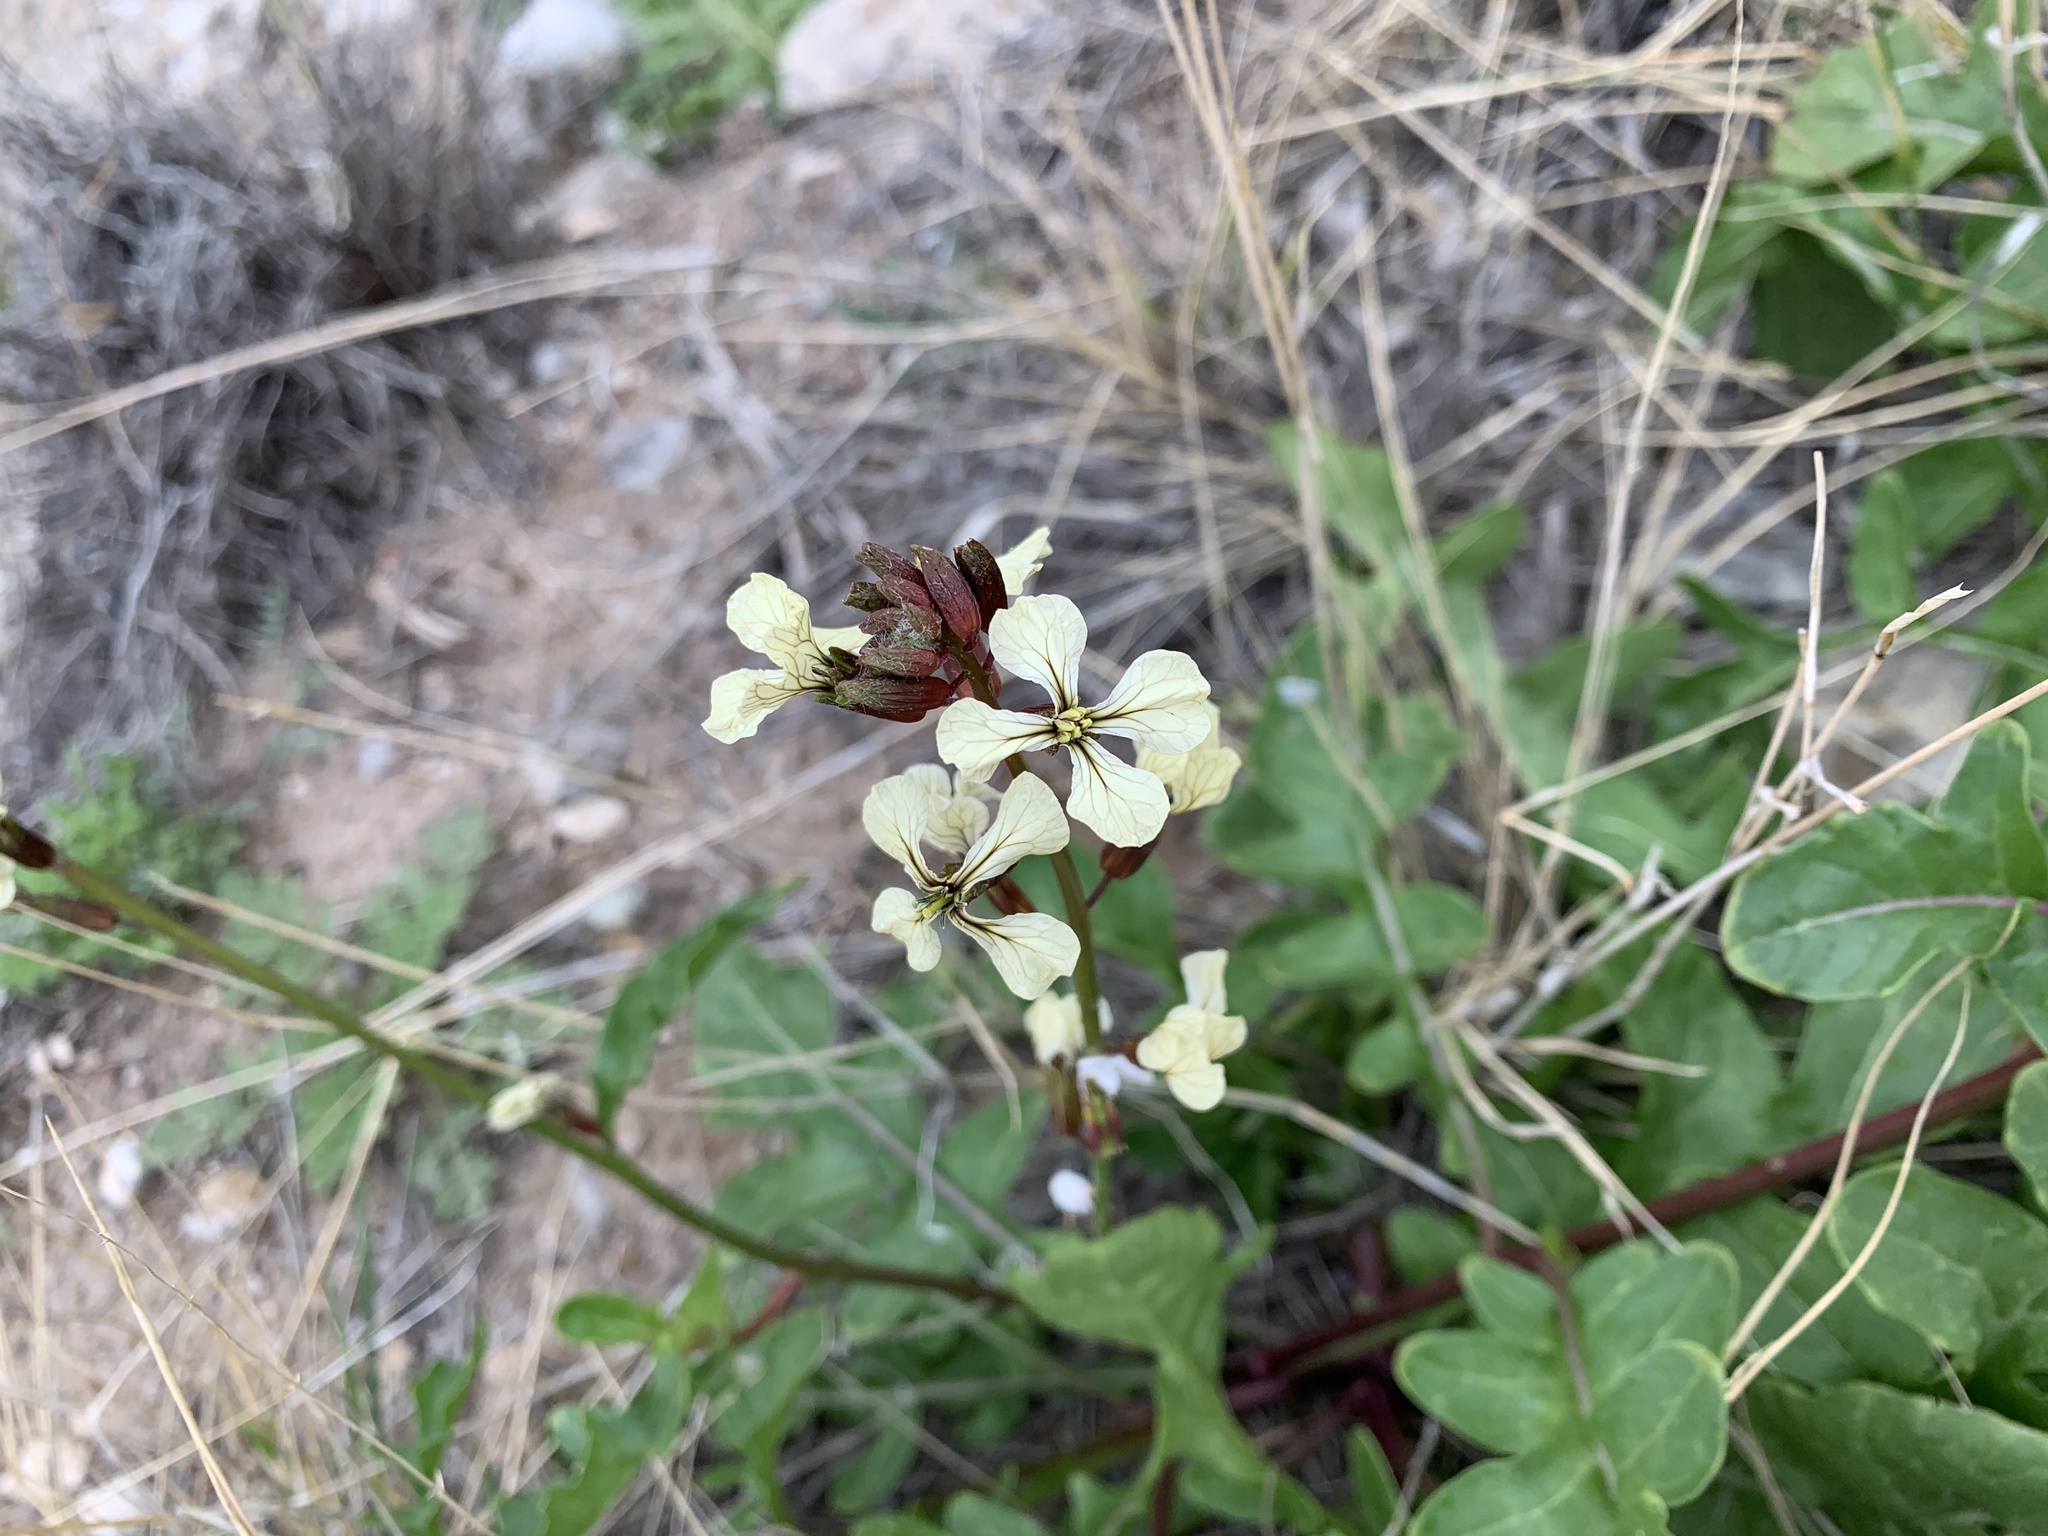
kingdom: Plantae
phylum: Tracheophyta
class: Magnoliopsida
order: Brassicales
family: Brassicaceae
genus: Eruca
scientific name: Eruca vesicaria
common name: Garden rocket
